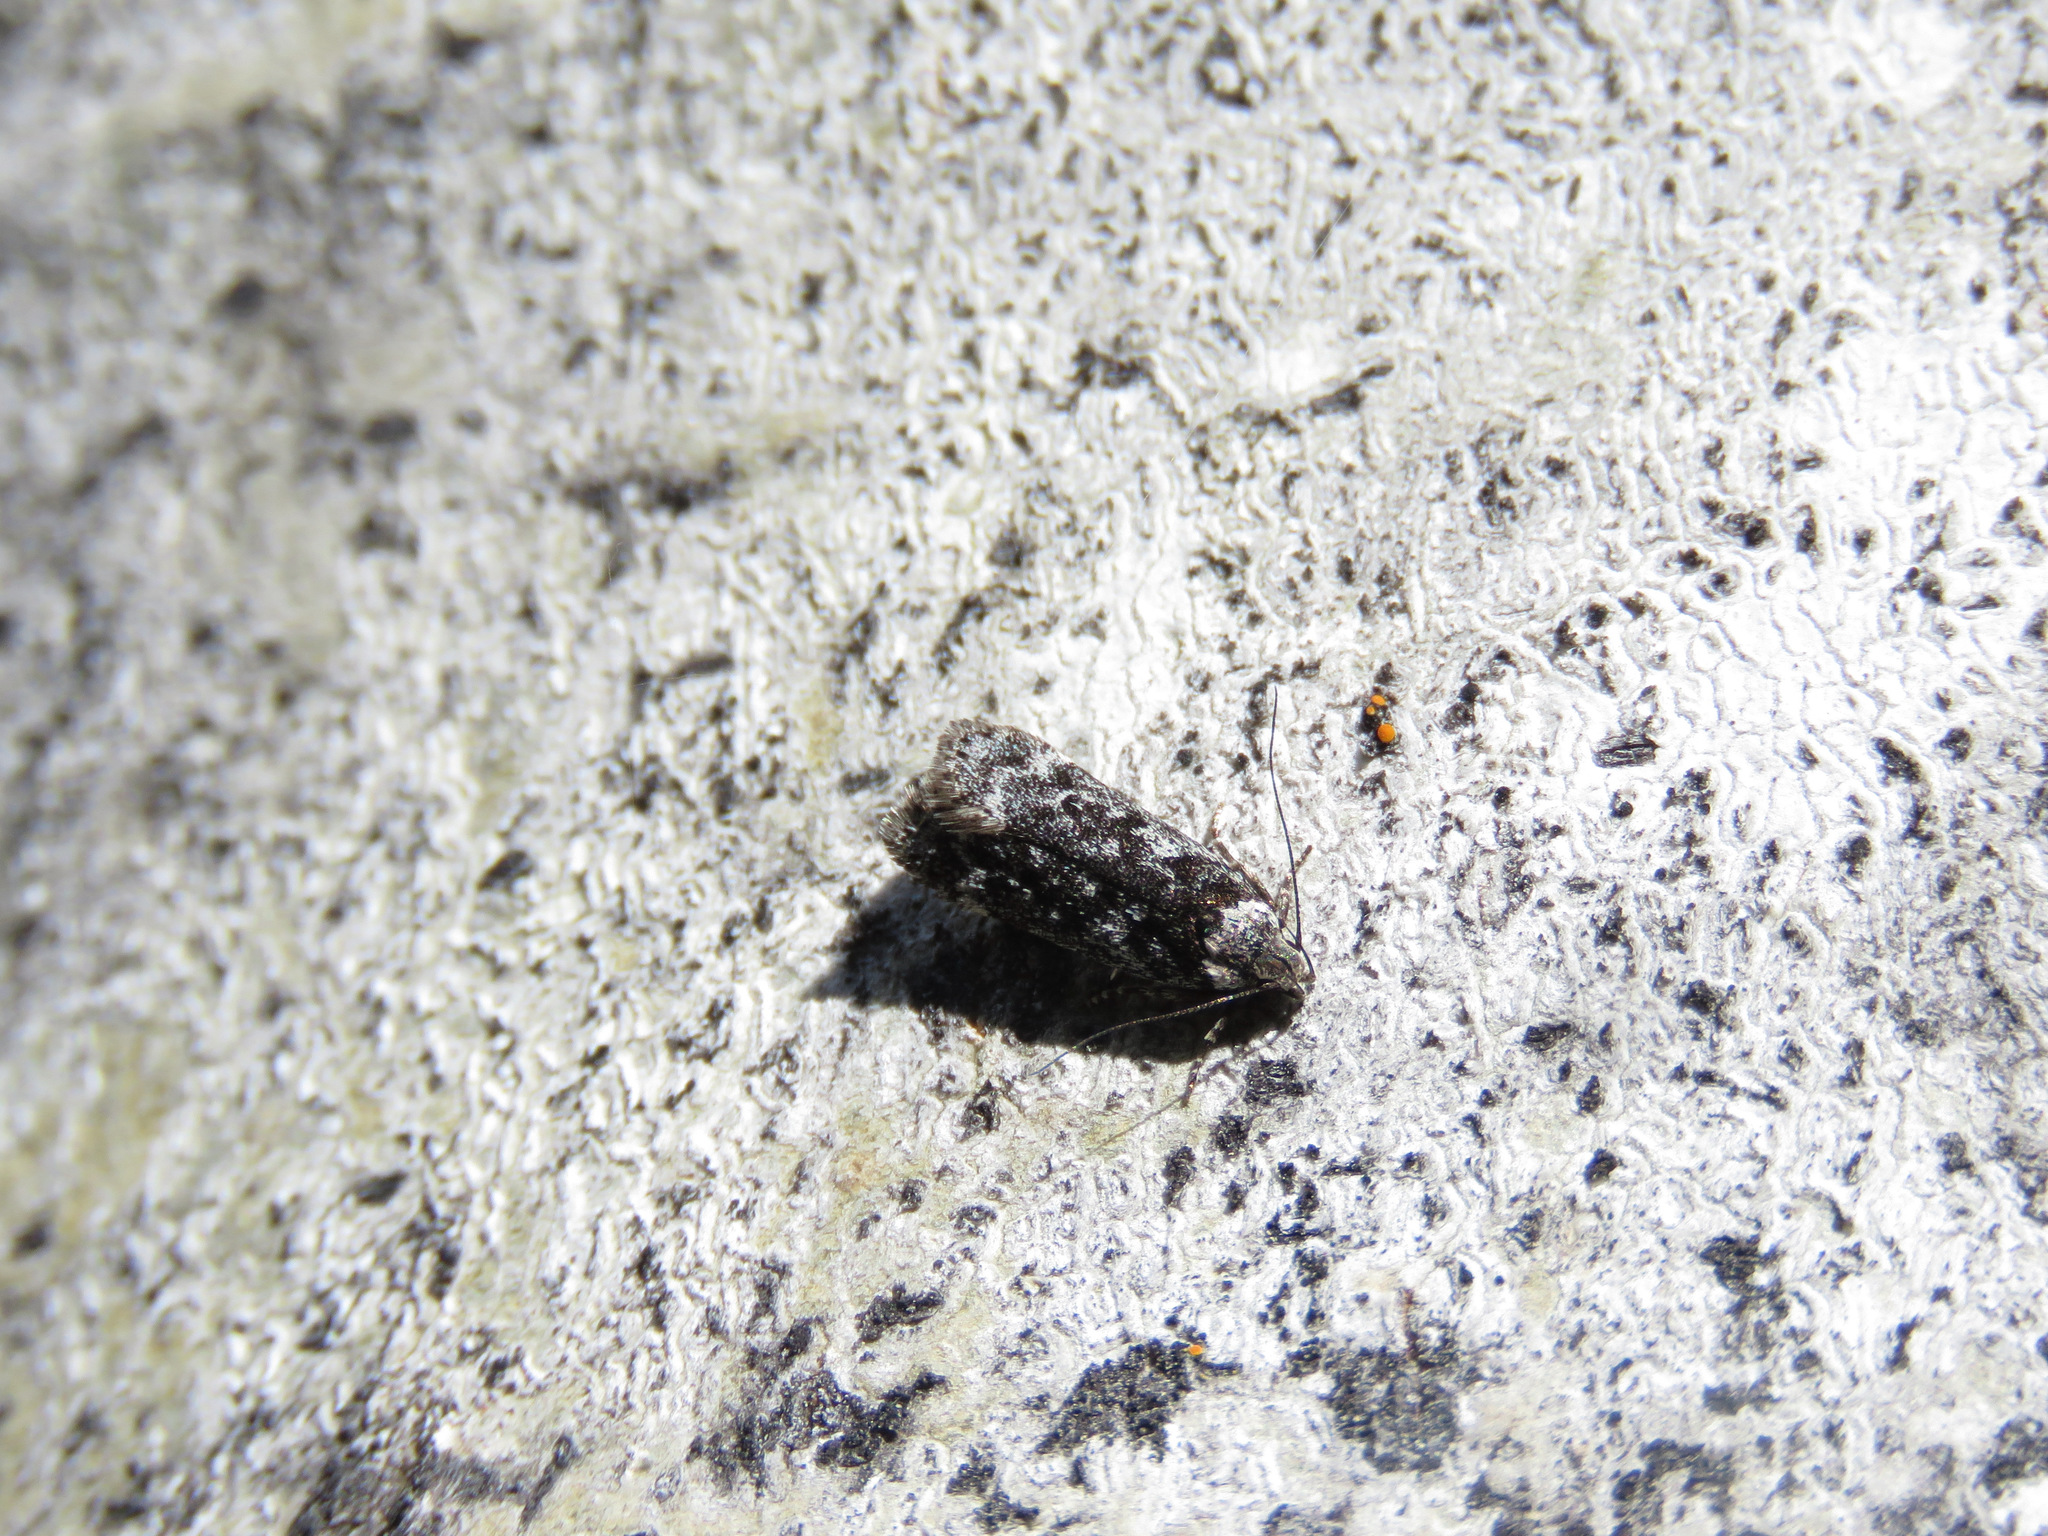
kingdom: Animalia
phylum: Arthropoda
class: Insecta
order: Lepidoptera
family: Gelechiidae
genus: Anacampsis
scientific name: Anacampsis niveopulvella
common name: Pale-headed aspen leafroller moth
